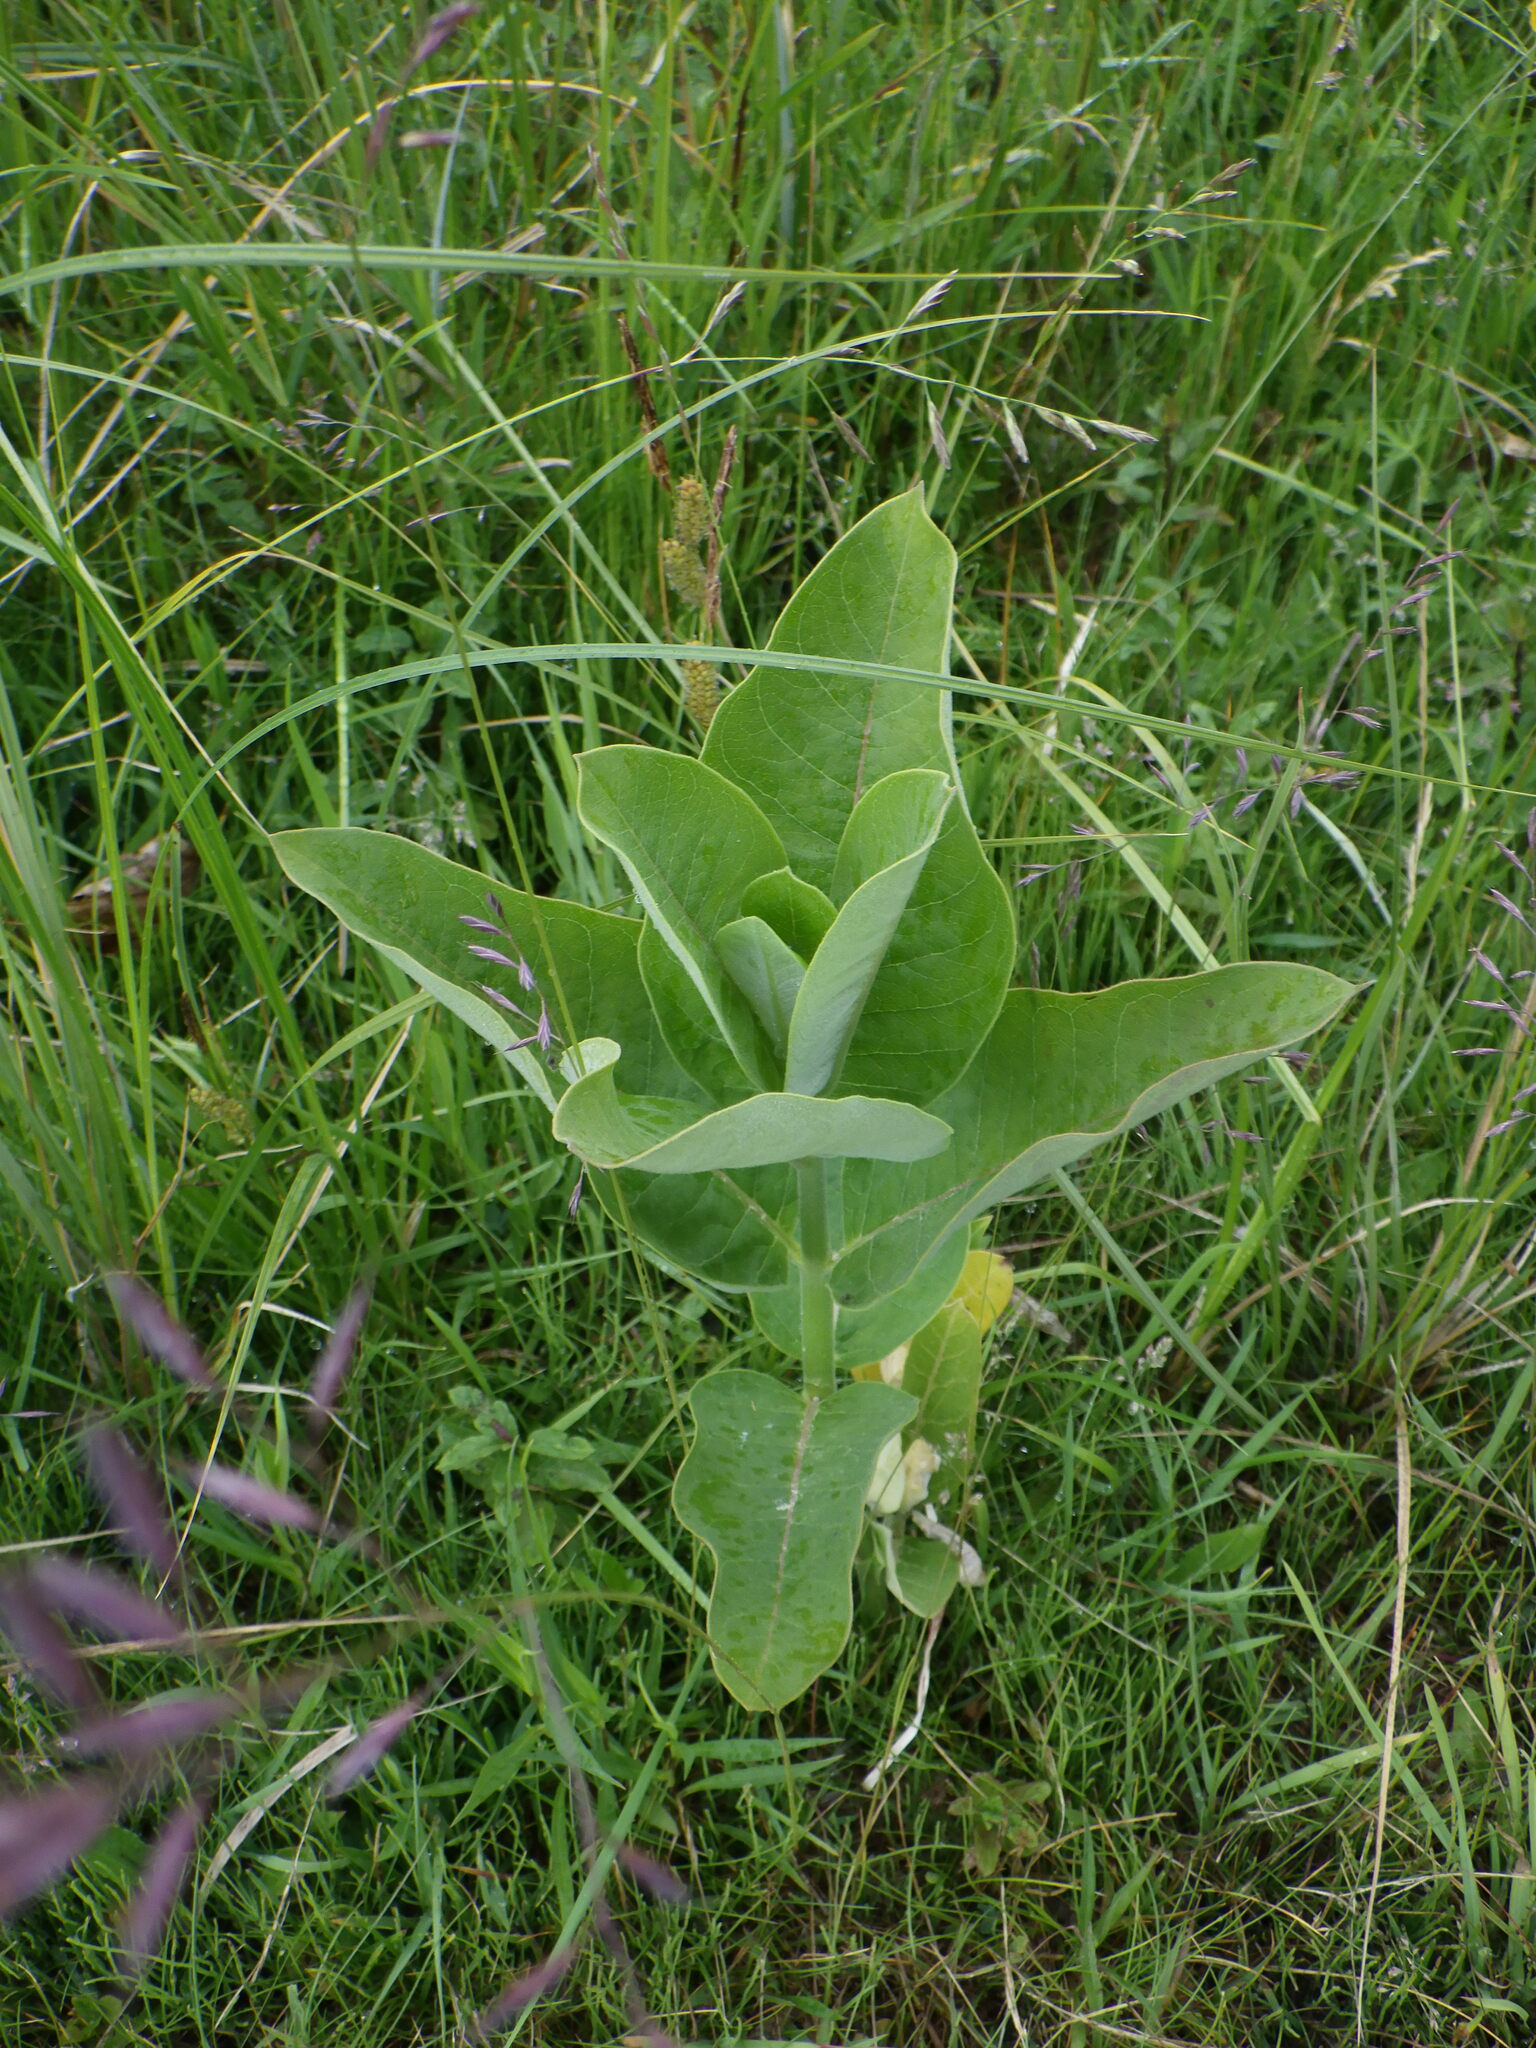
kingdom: Plantae
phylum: Tracheophyta
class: Magnoliopsida
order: Gentianales
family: Apocynaceae
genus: Asclepias
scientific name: Asclepias syriaca
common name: Common milkweed
